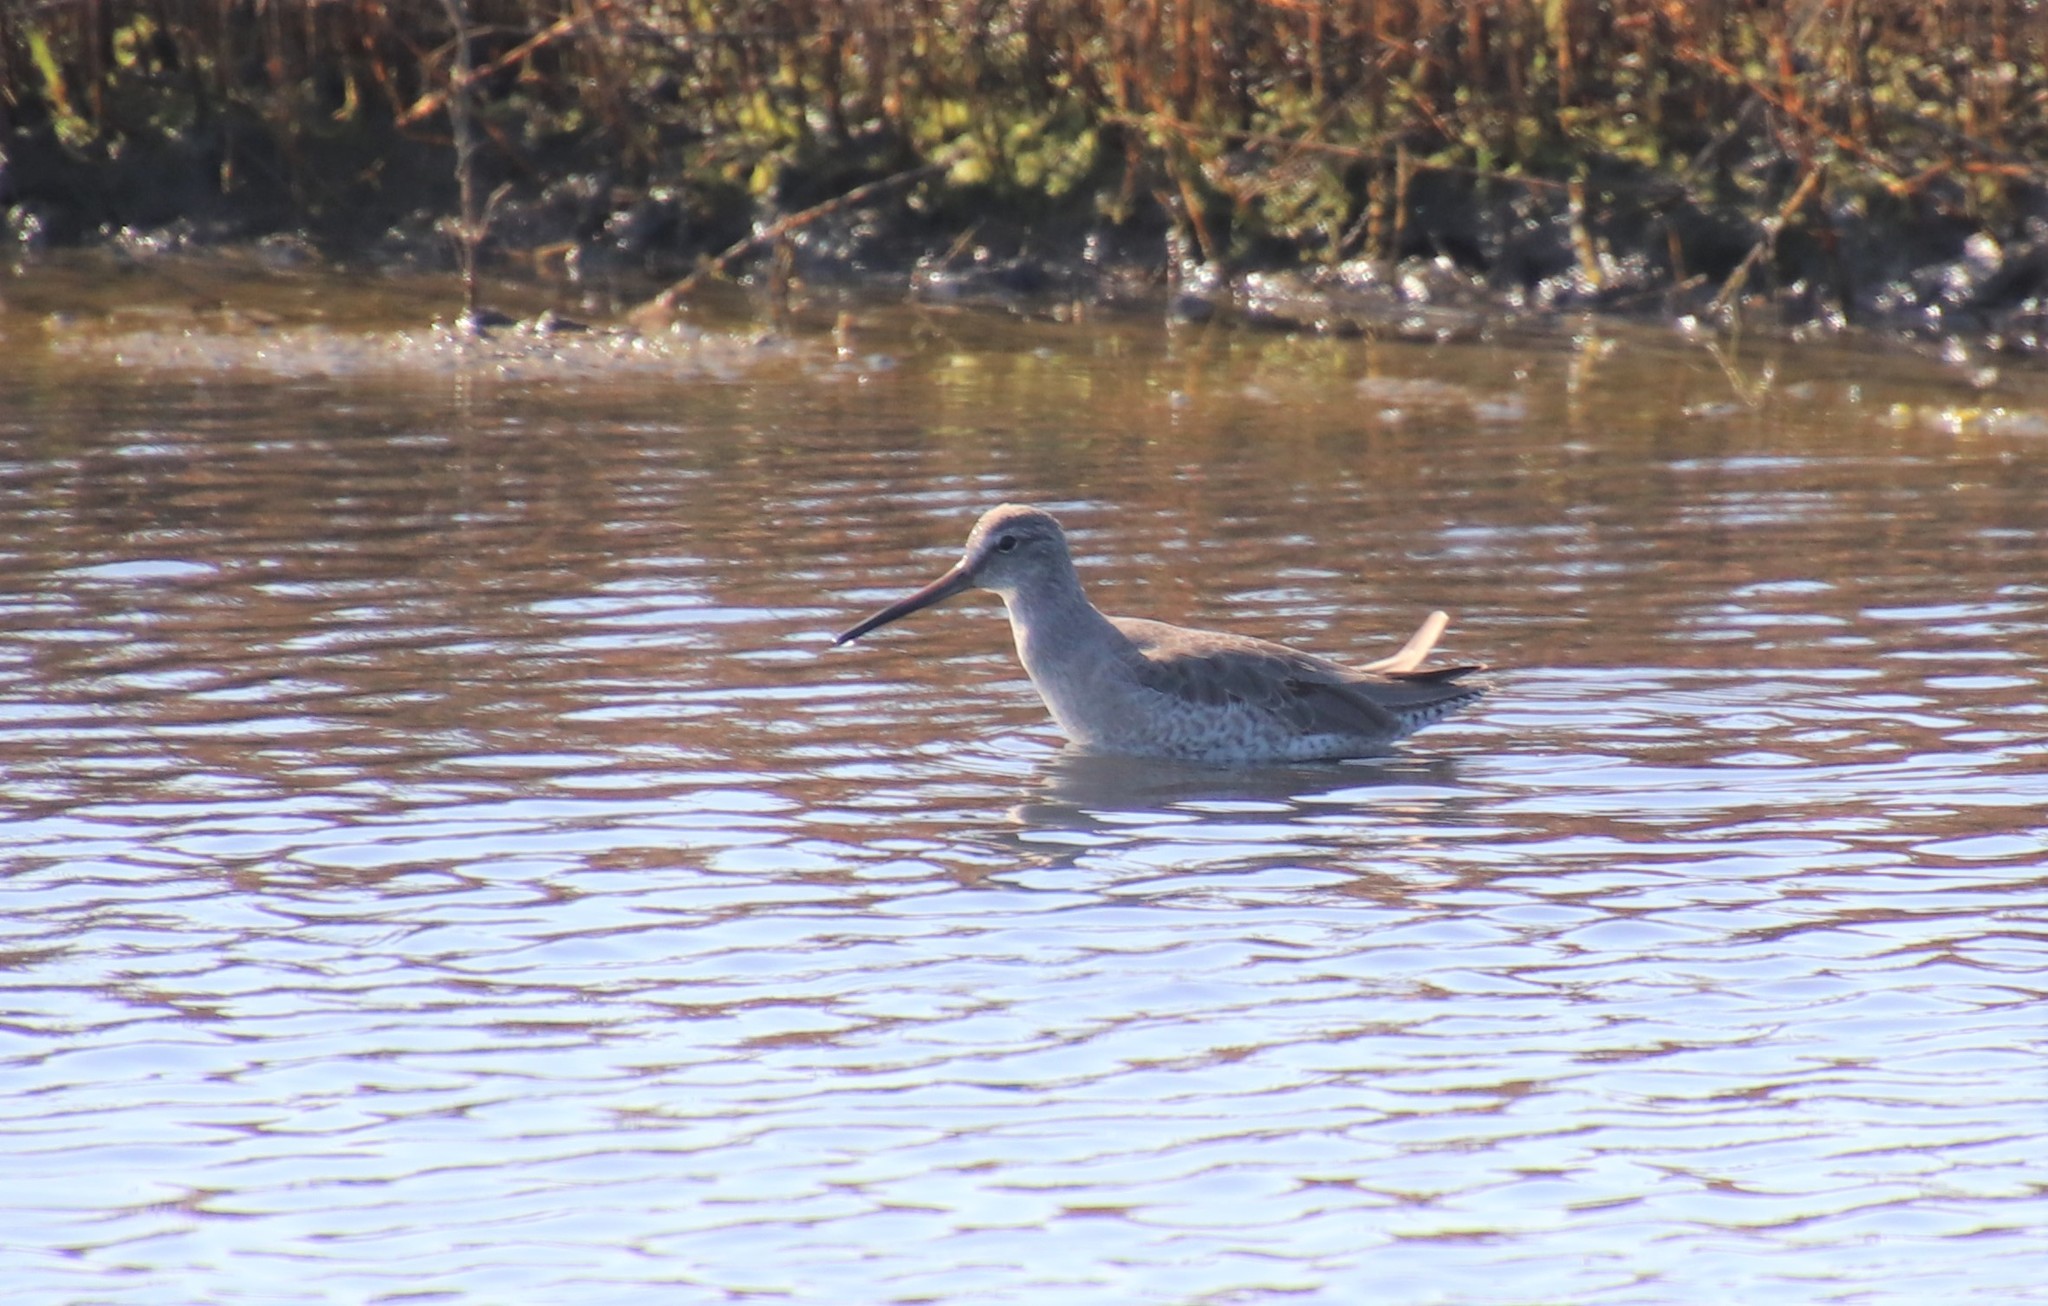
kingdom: Animalia
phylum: Chordata
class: Aves
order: Charadriiformes
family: Scolopacidae
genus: Limnodromus
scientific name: Limnodromus griseus
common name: Short-billed dowitcher
